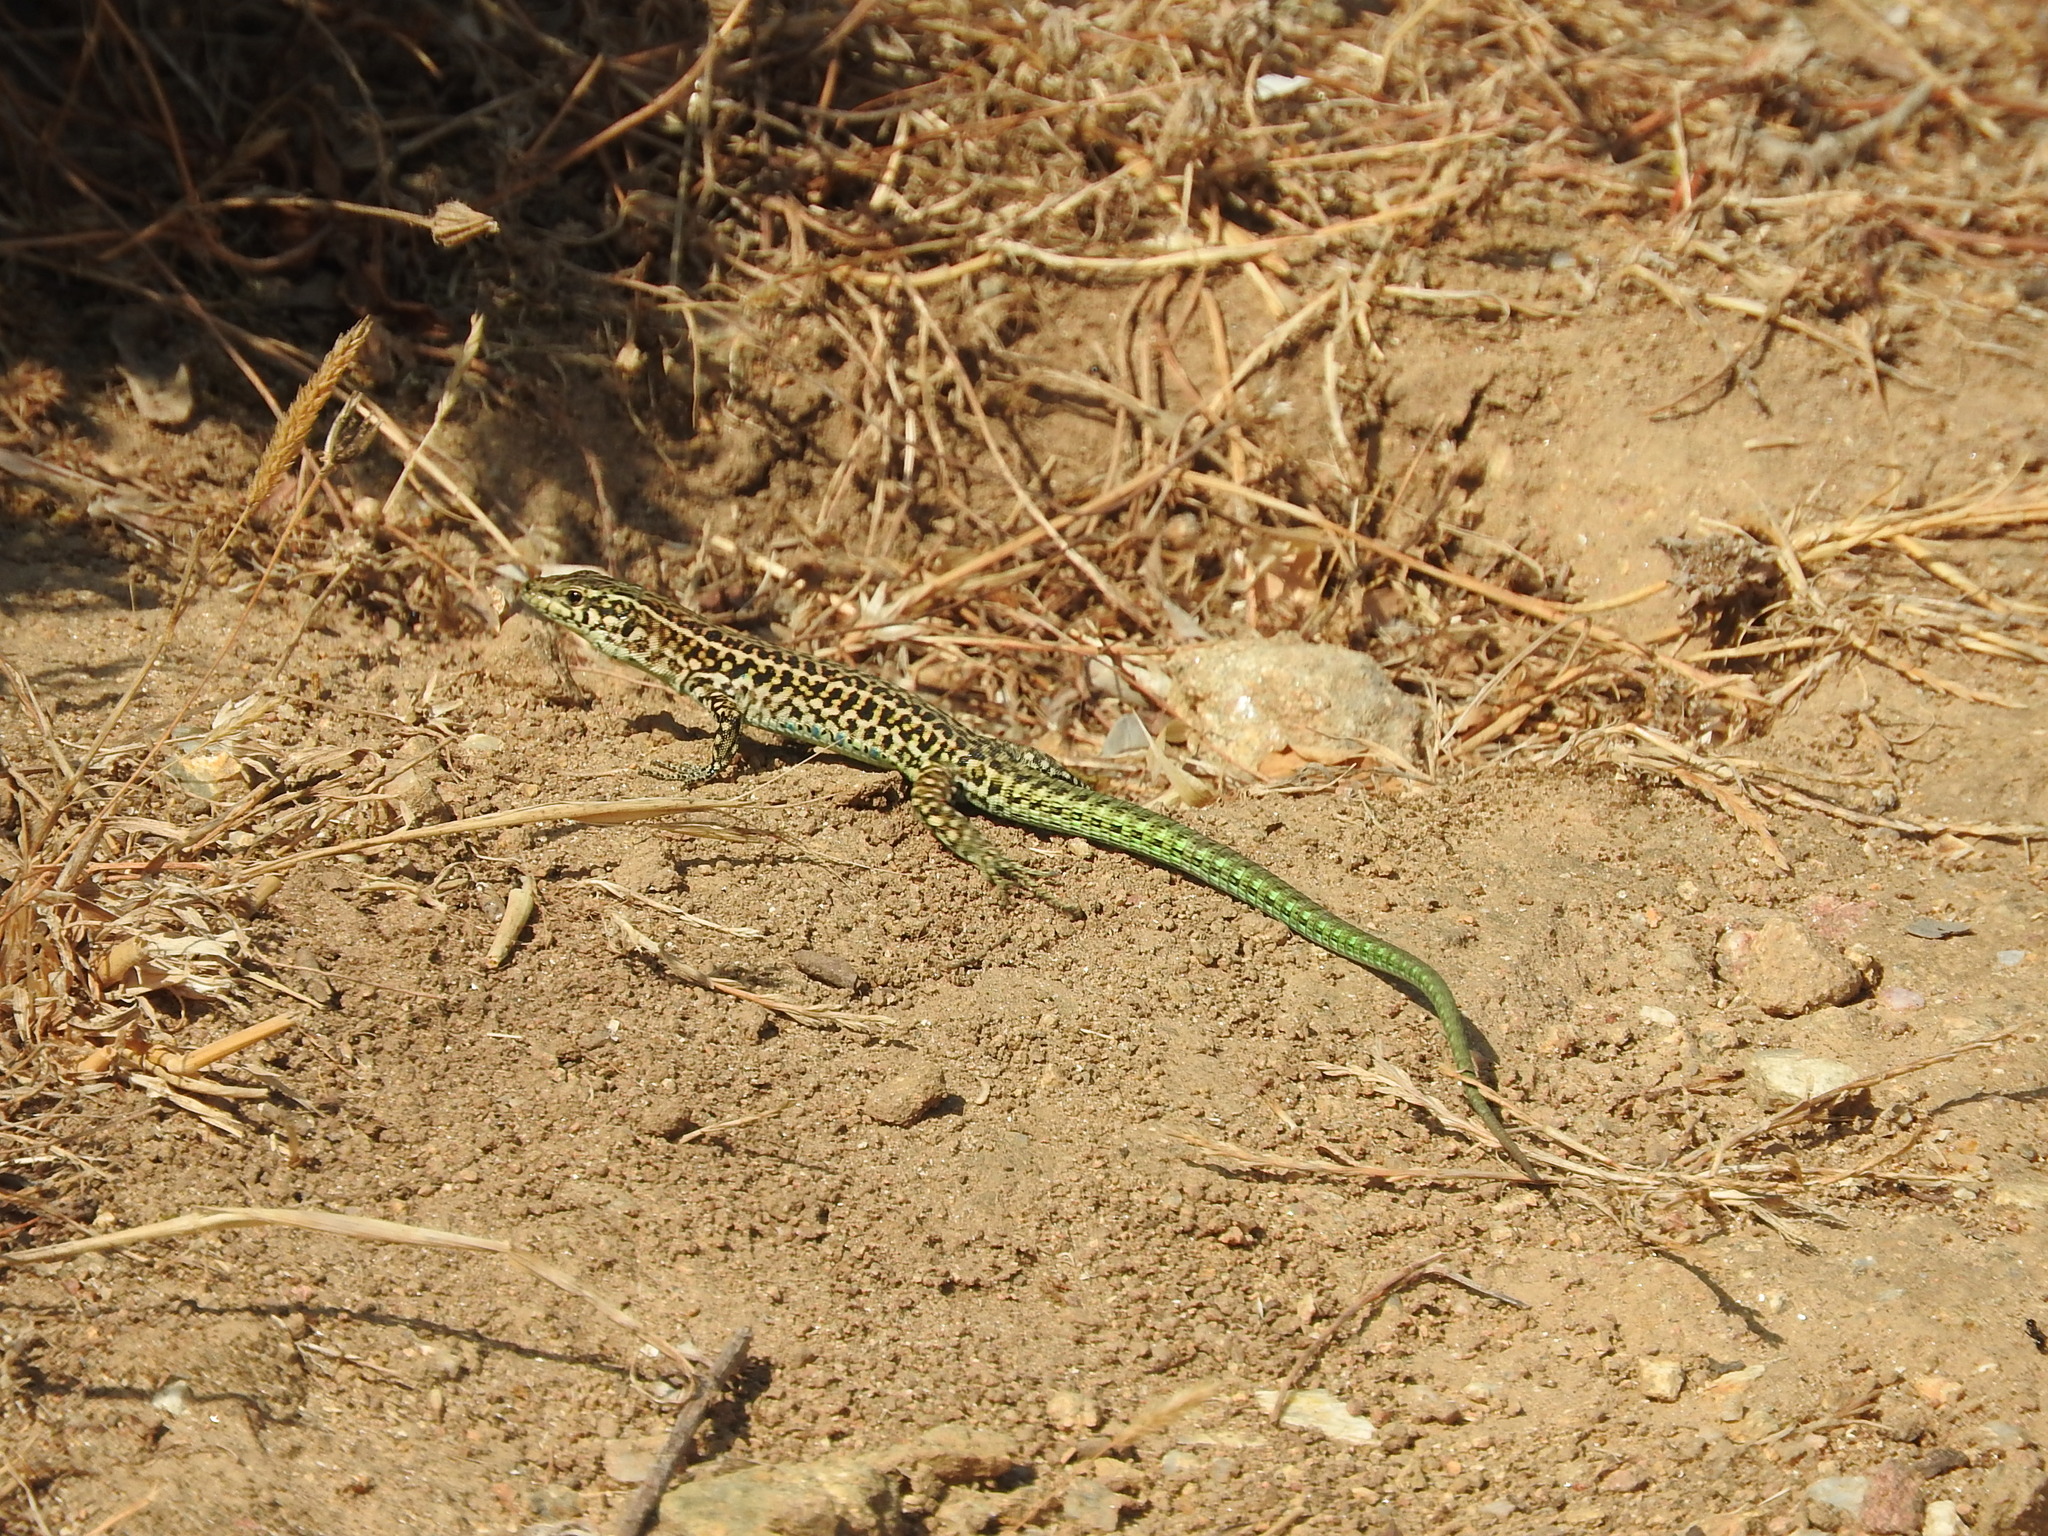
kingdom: Animalia
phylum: Chordata
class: Squamata
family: Lacertidae
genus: Podarcis
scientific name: Podarcis tiliguerta
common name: Tyrrhenian wall lizard
